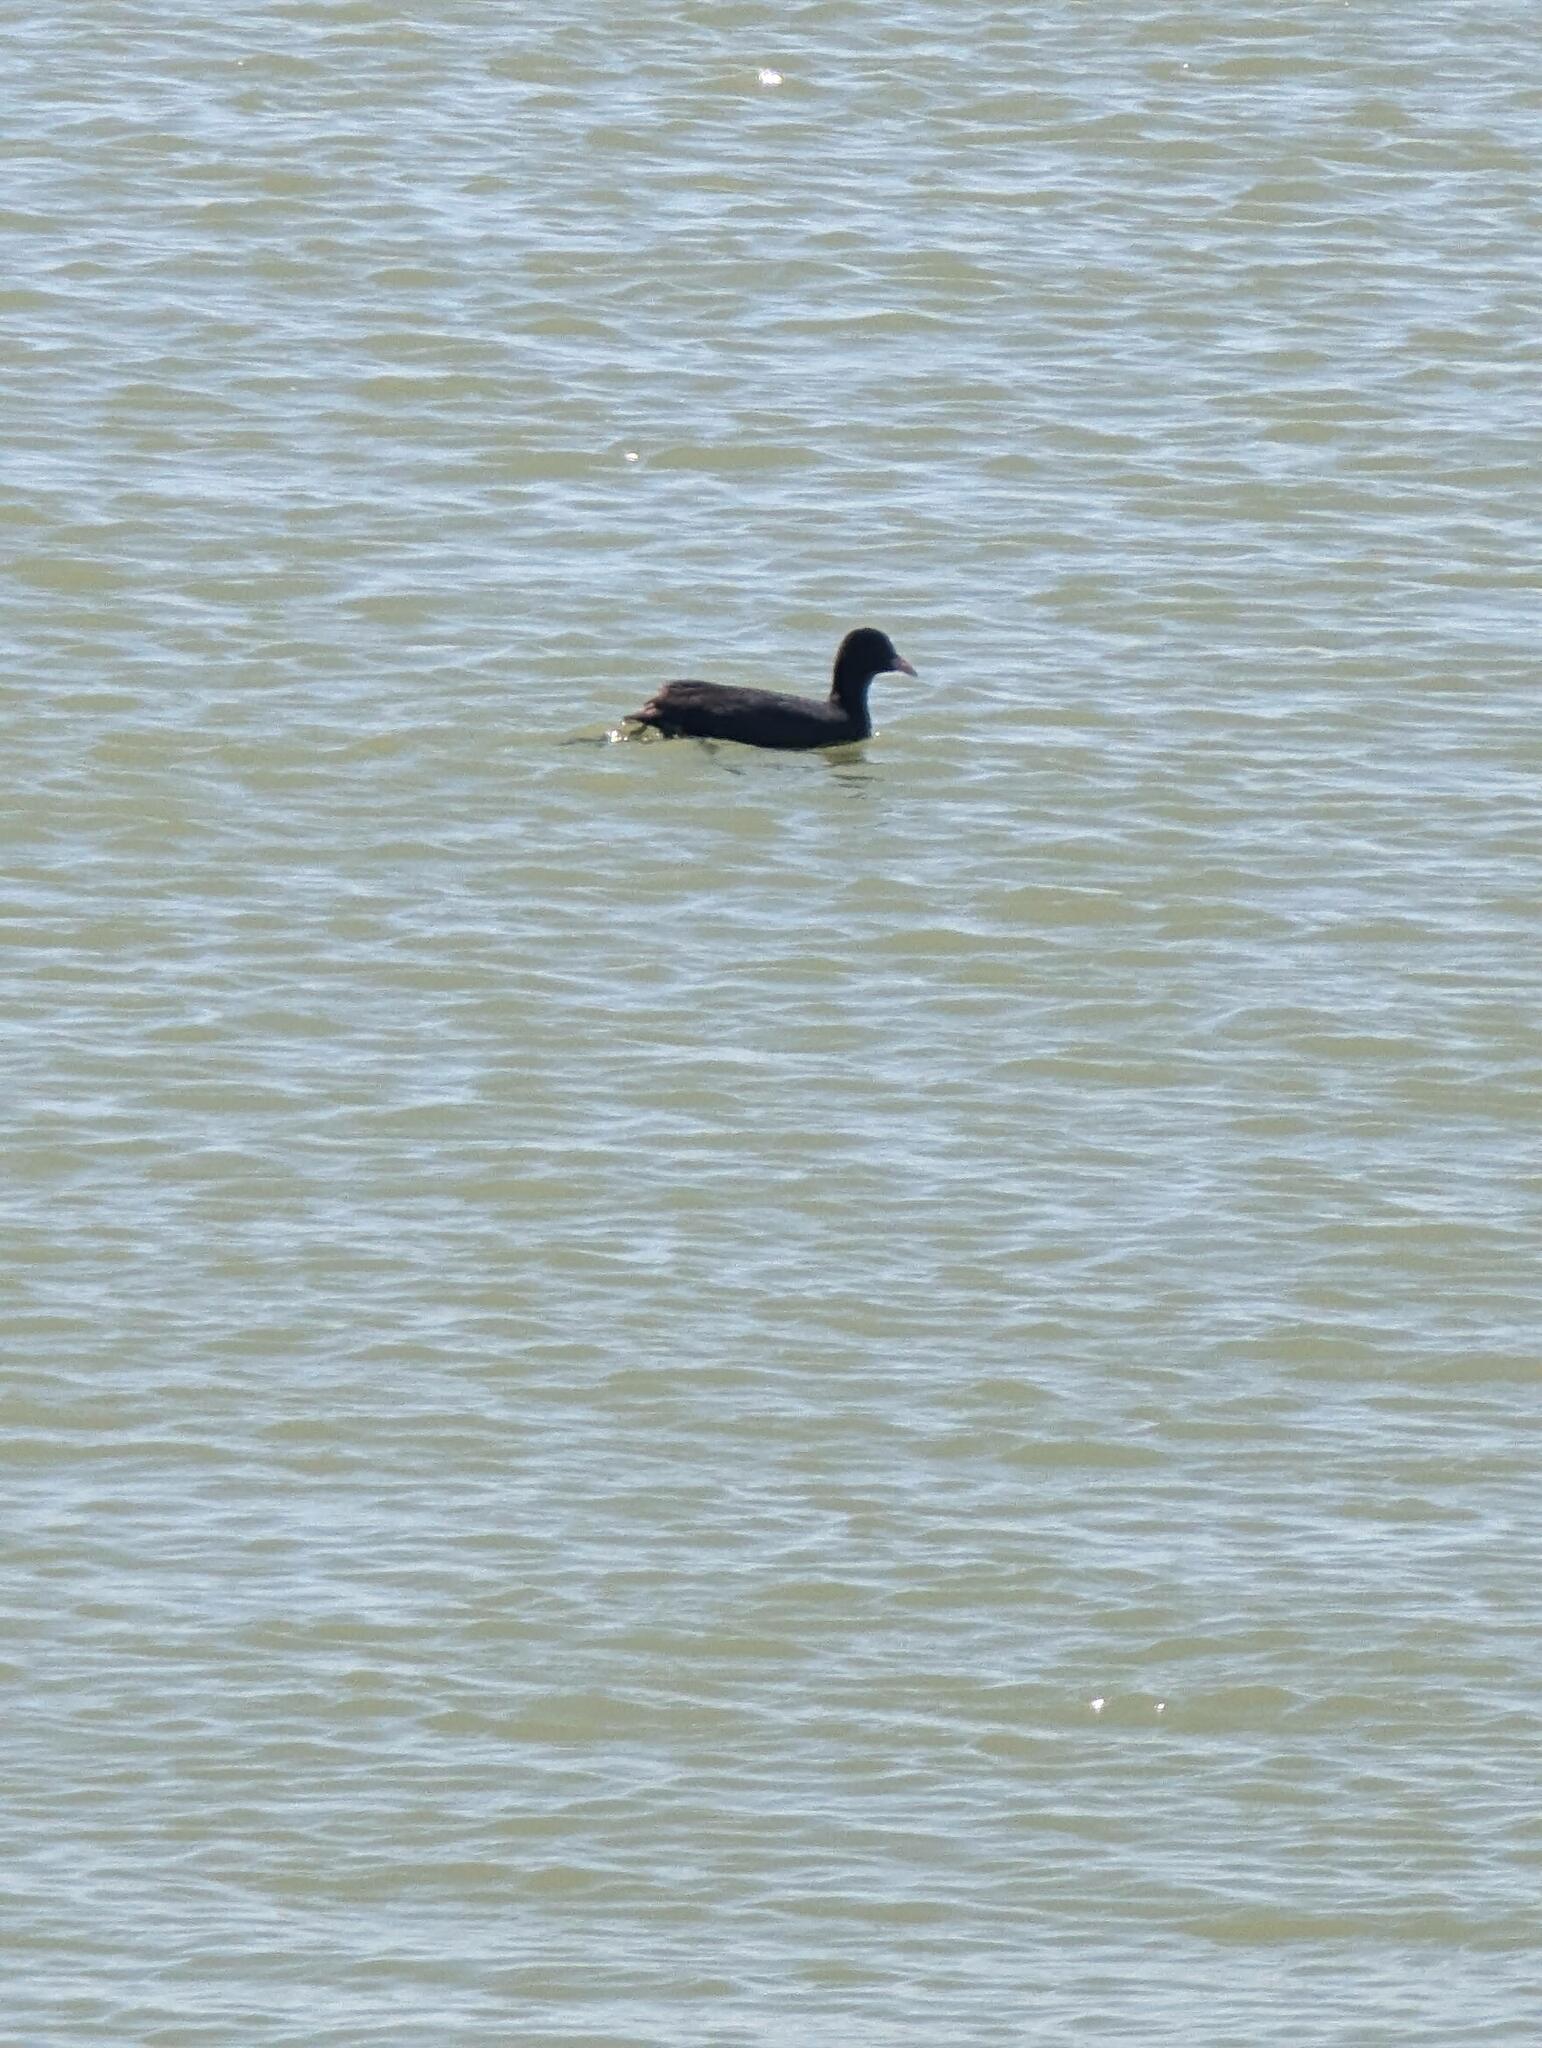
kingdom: Animalia
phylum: Chordata
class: Aves
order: Gruiformes
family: Rallidae
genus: Fulica
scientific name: Fulica atra
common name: Eurasian coot
